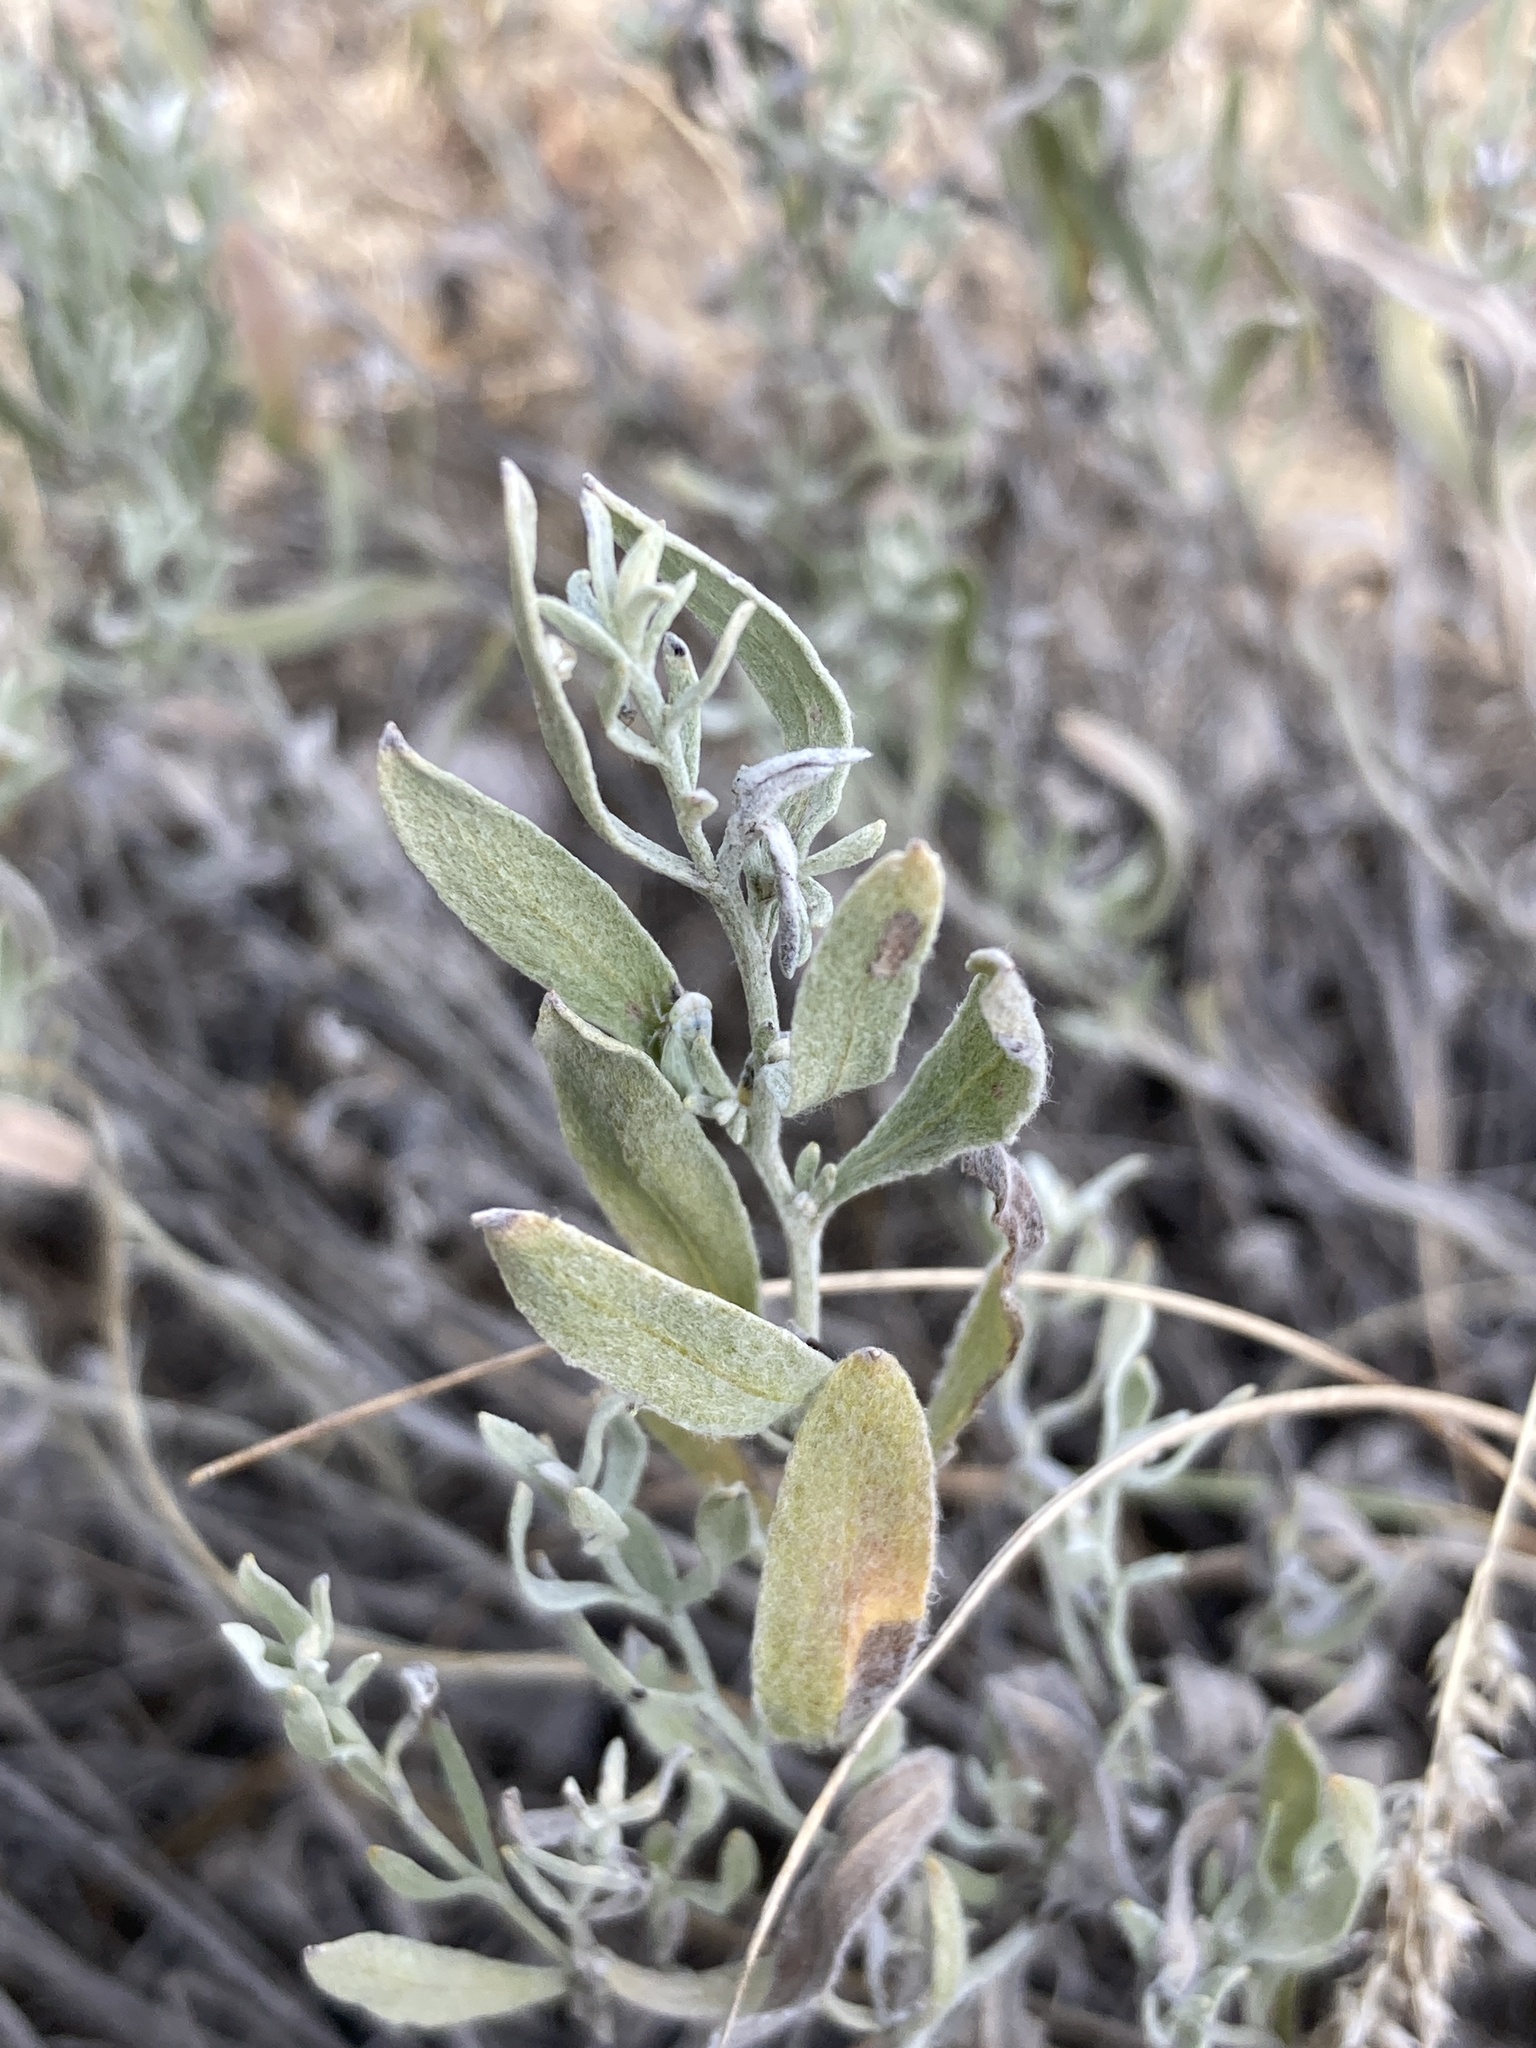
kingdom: Plantae
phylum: Tracheophyta
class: Magnoliopsida
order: Asterales
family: Asteraceae
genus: Galatella
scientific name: Galatella villosa
